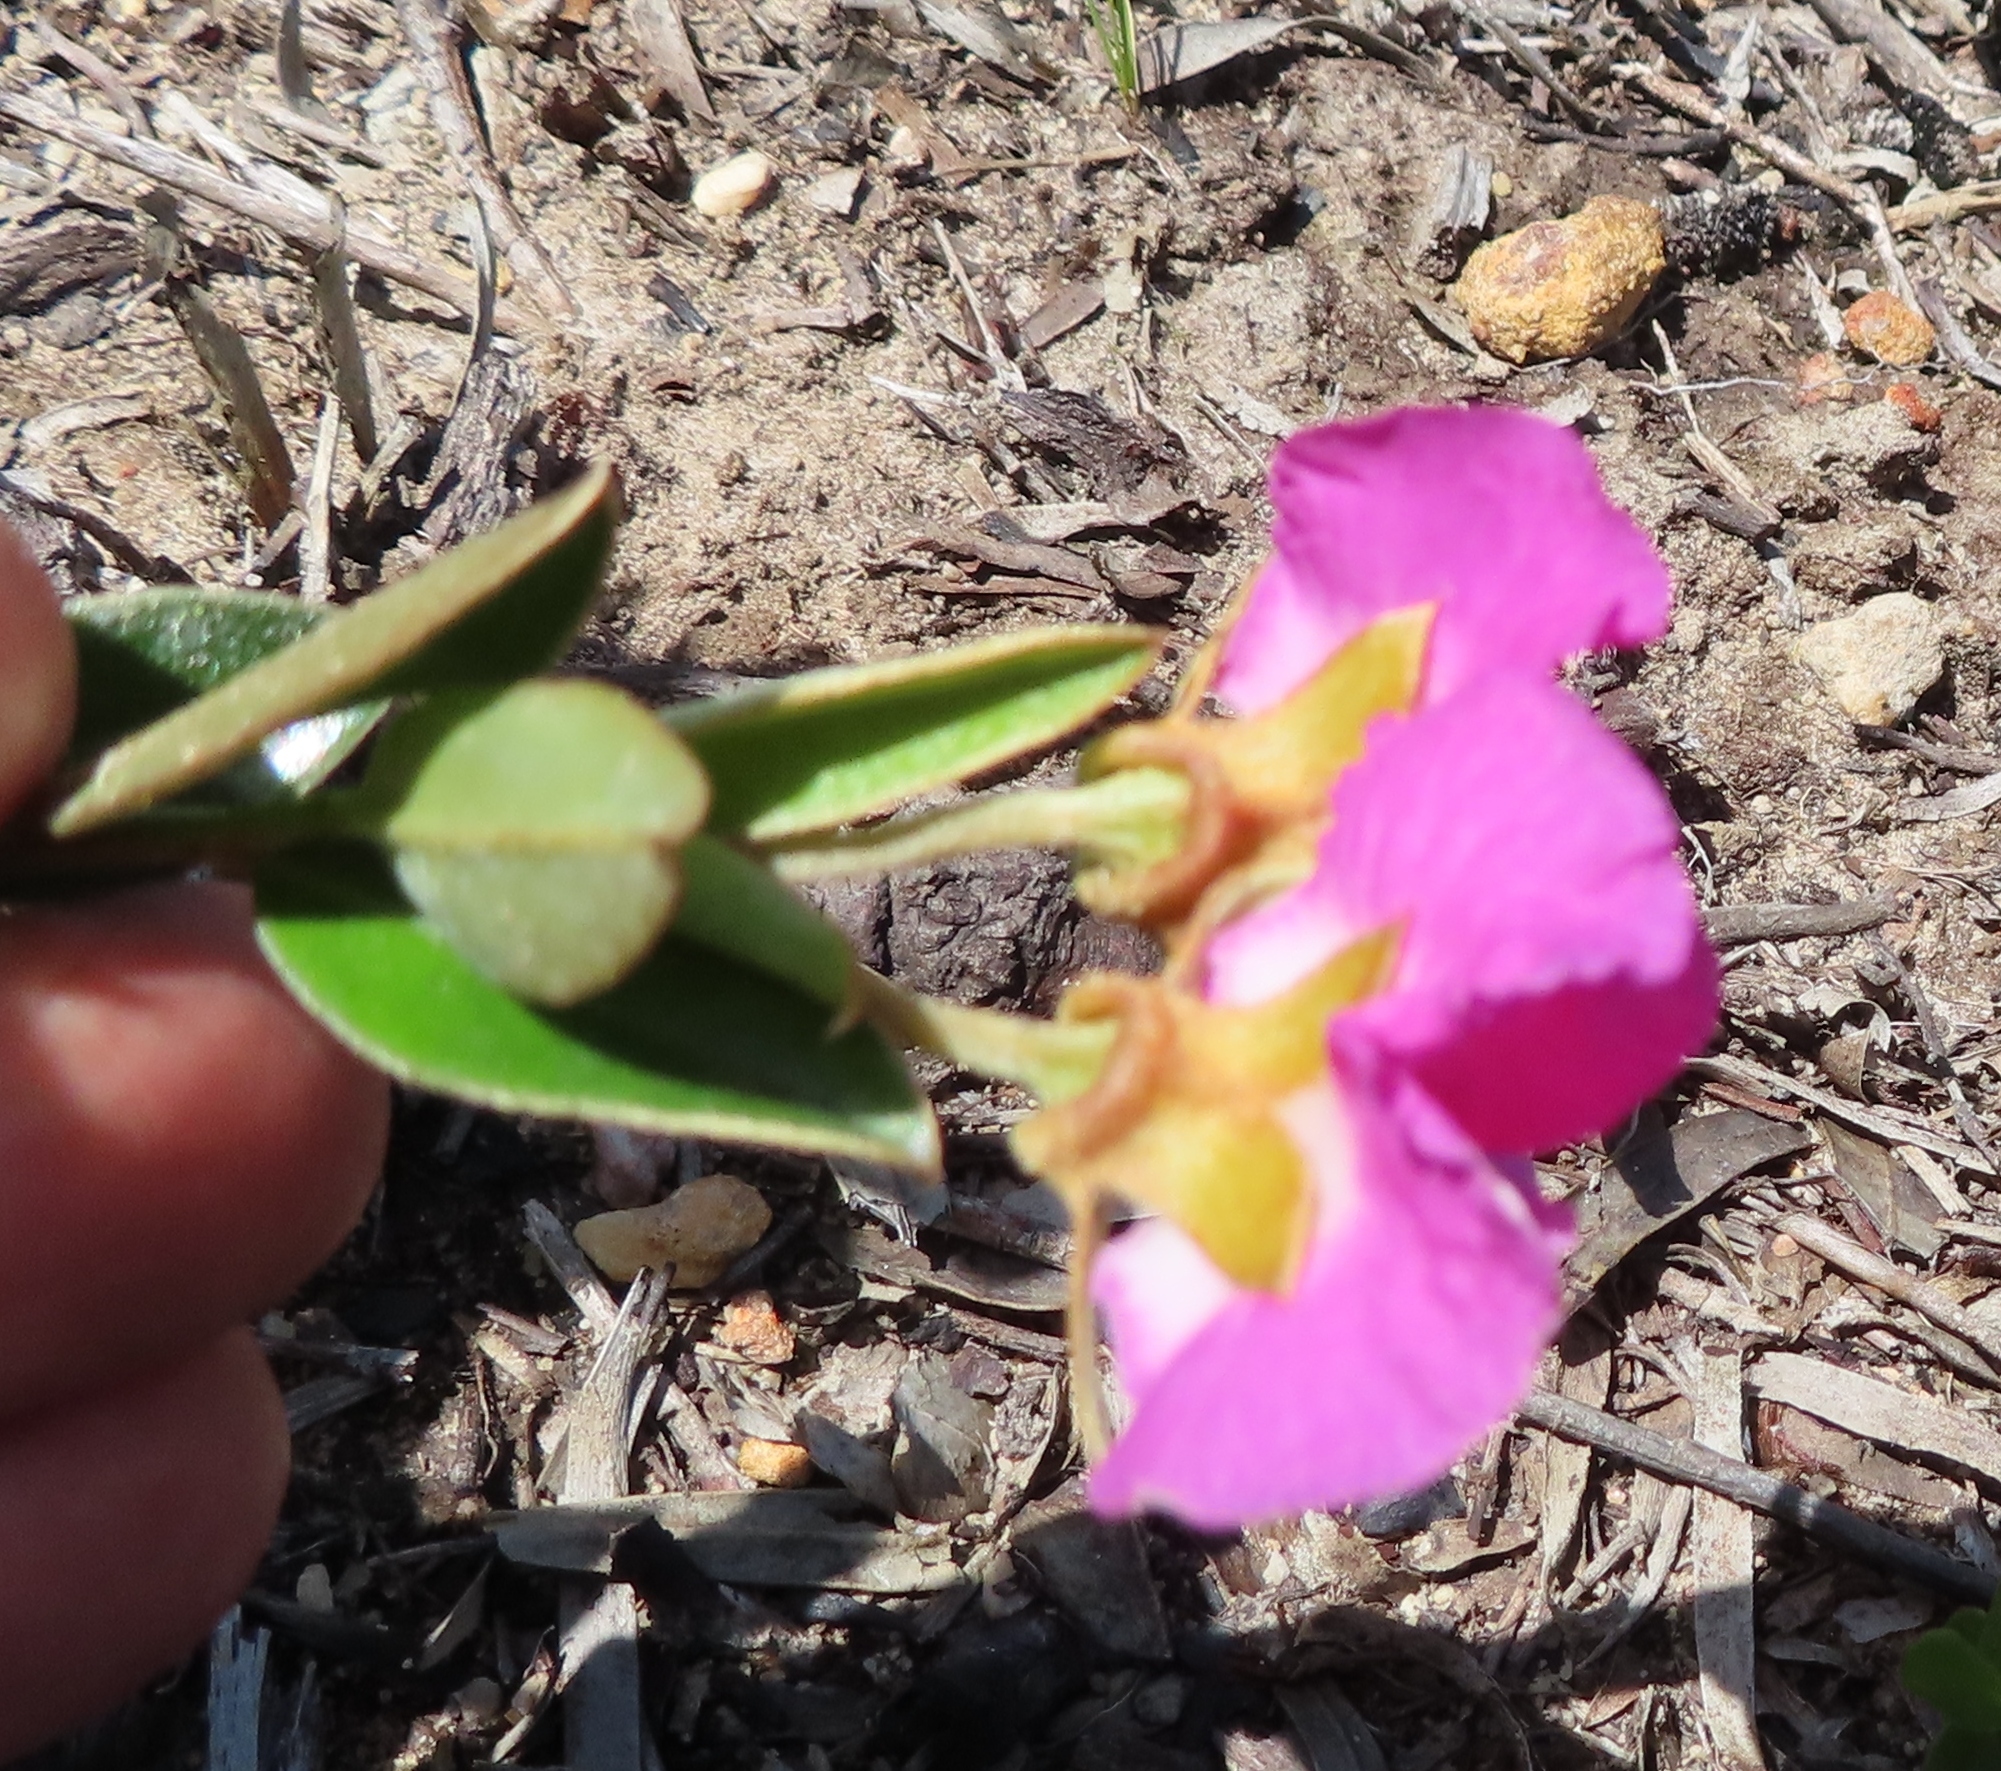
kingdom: Plantae
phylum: Tracheophyta
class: Magnoliopsida
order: Fabales
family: Fabaceae
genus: Podalyria
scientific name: Podalyria biflora
